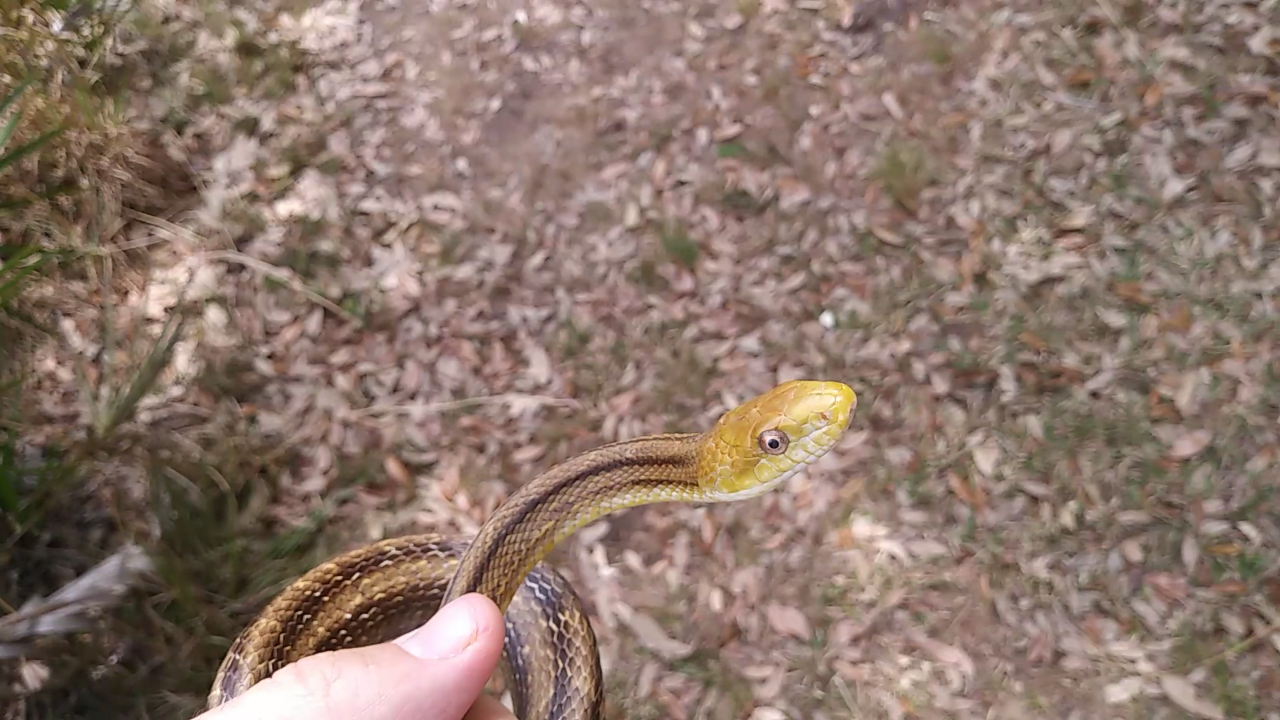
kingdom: Animalia
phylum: Chordata
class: Squamata
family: Colubridae
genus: Pantherophis
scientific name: Pantherophis alleghaniensis
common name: Eastern rat snake
